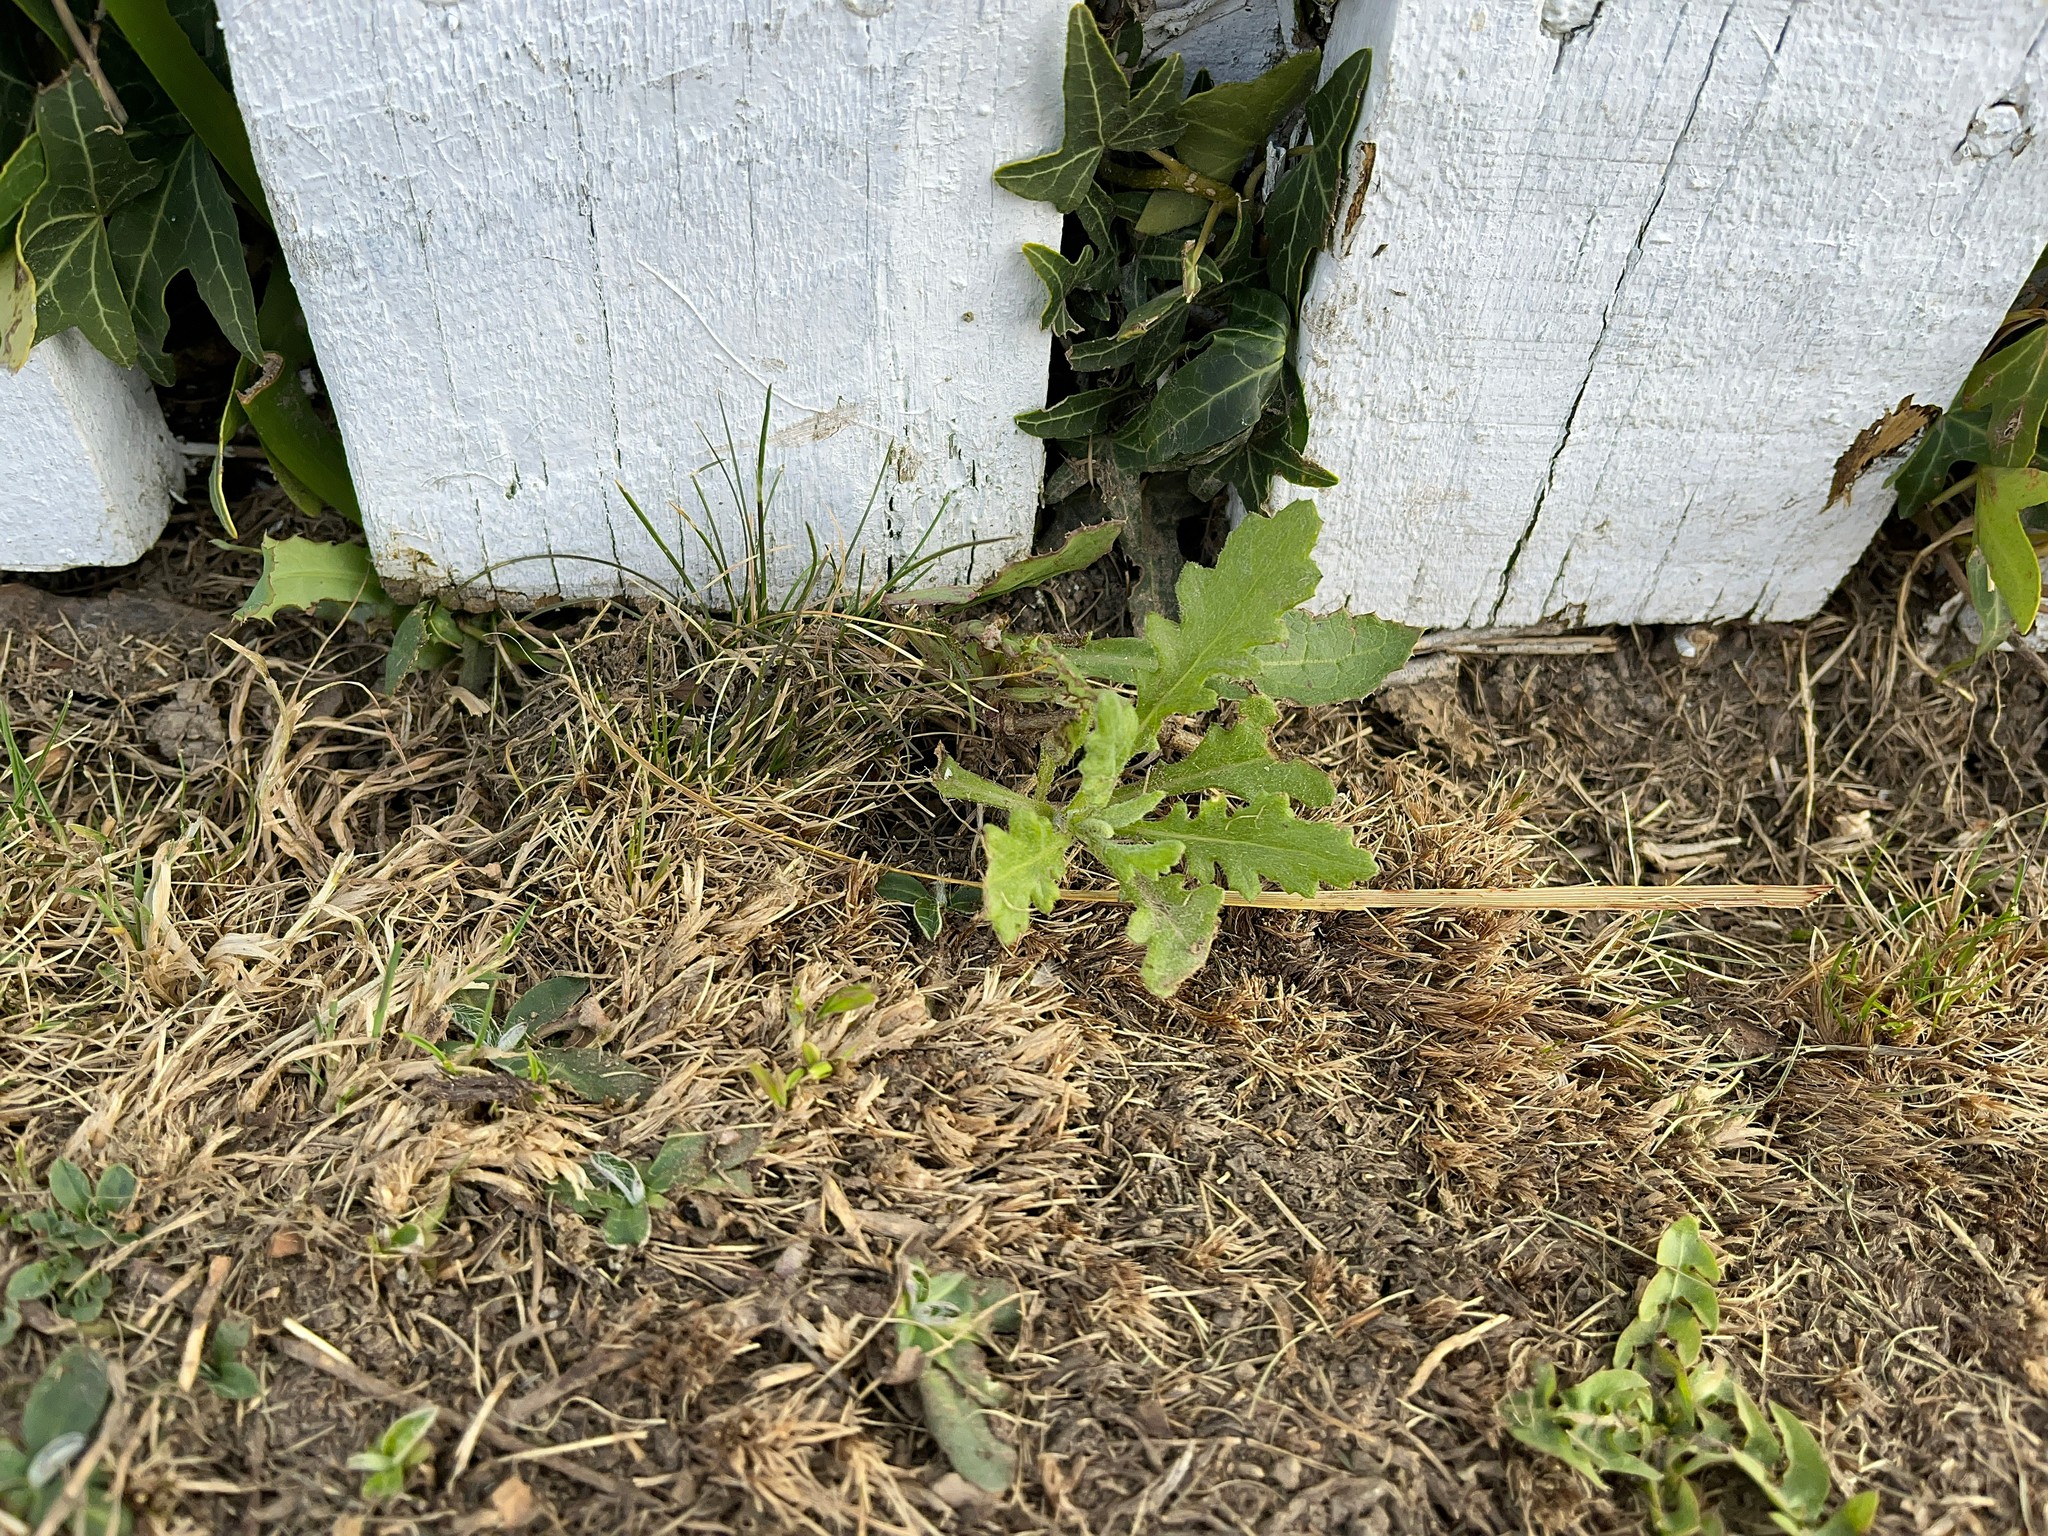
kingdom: Plantae
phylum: Tracheophyta
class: Magnoliopsida
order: Asterales
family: Asteraceae
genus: Senecio
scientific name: Senecio glomeratus
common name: Cutleaf burnweed
